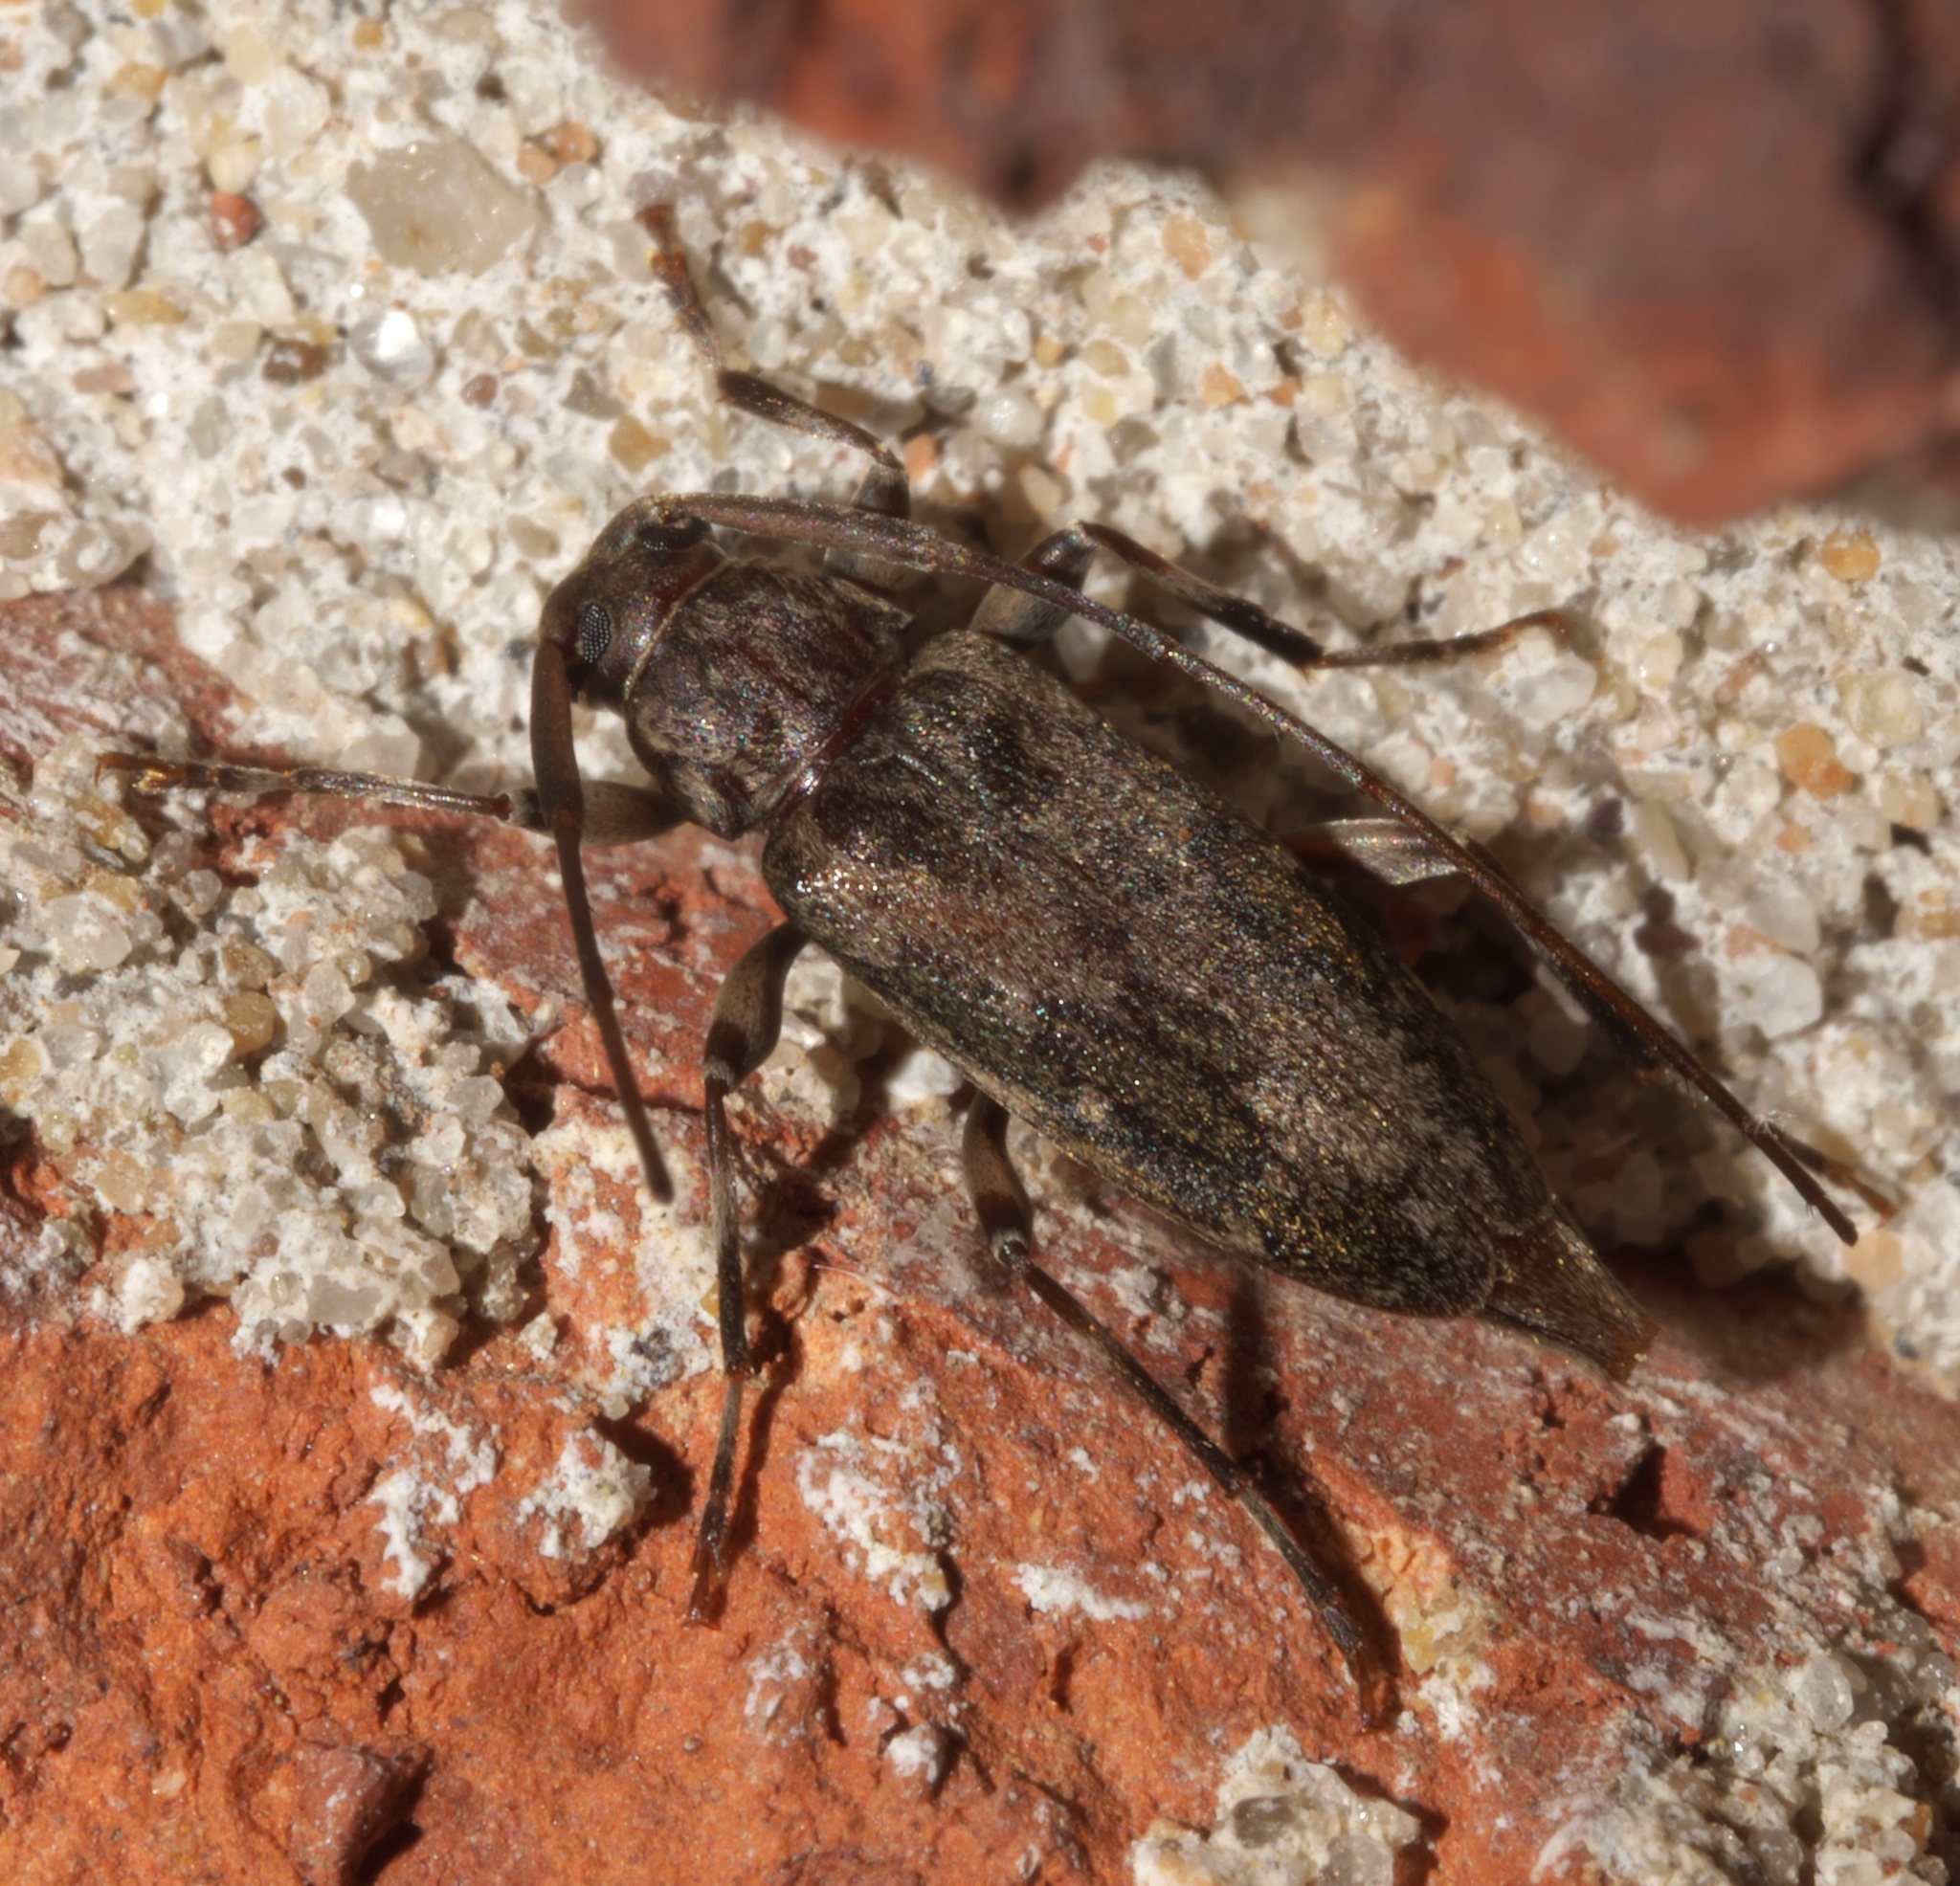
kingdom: Animalia
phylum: Arthropoda
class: Insecta
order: Coleoptera
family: Cerambycidae
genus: Lepturges
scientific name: Lepturges confluens
